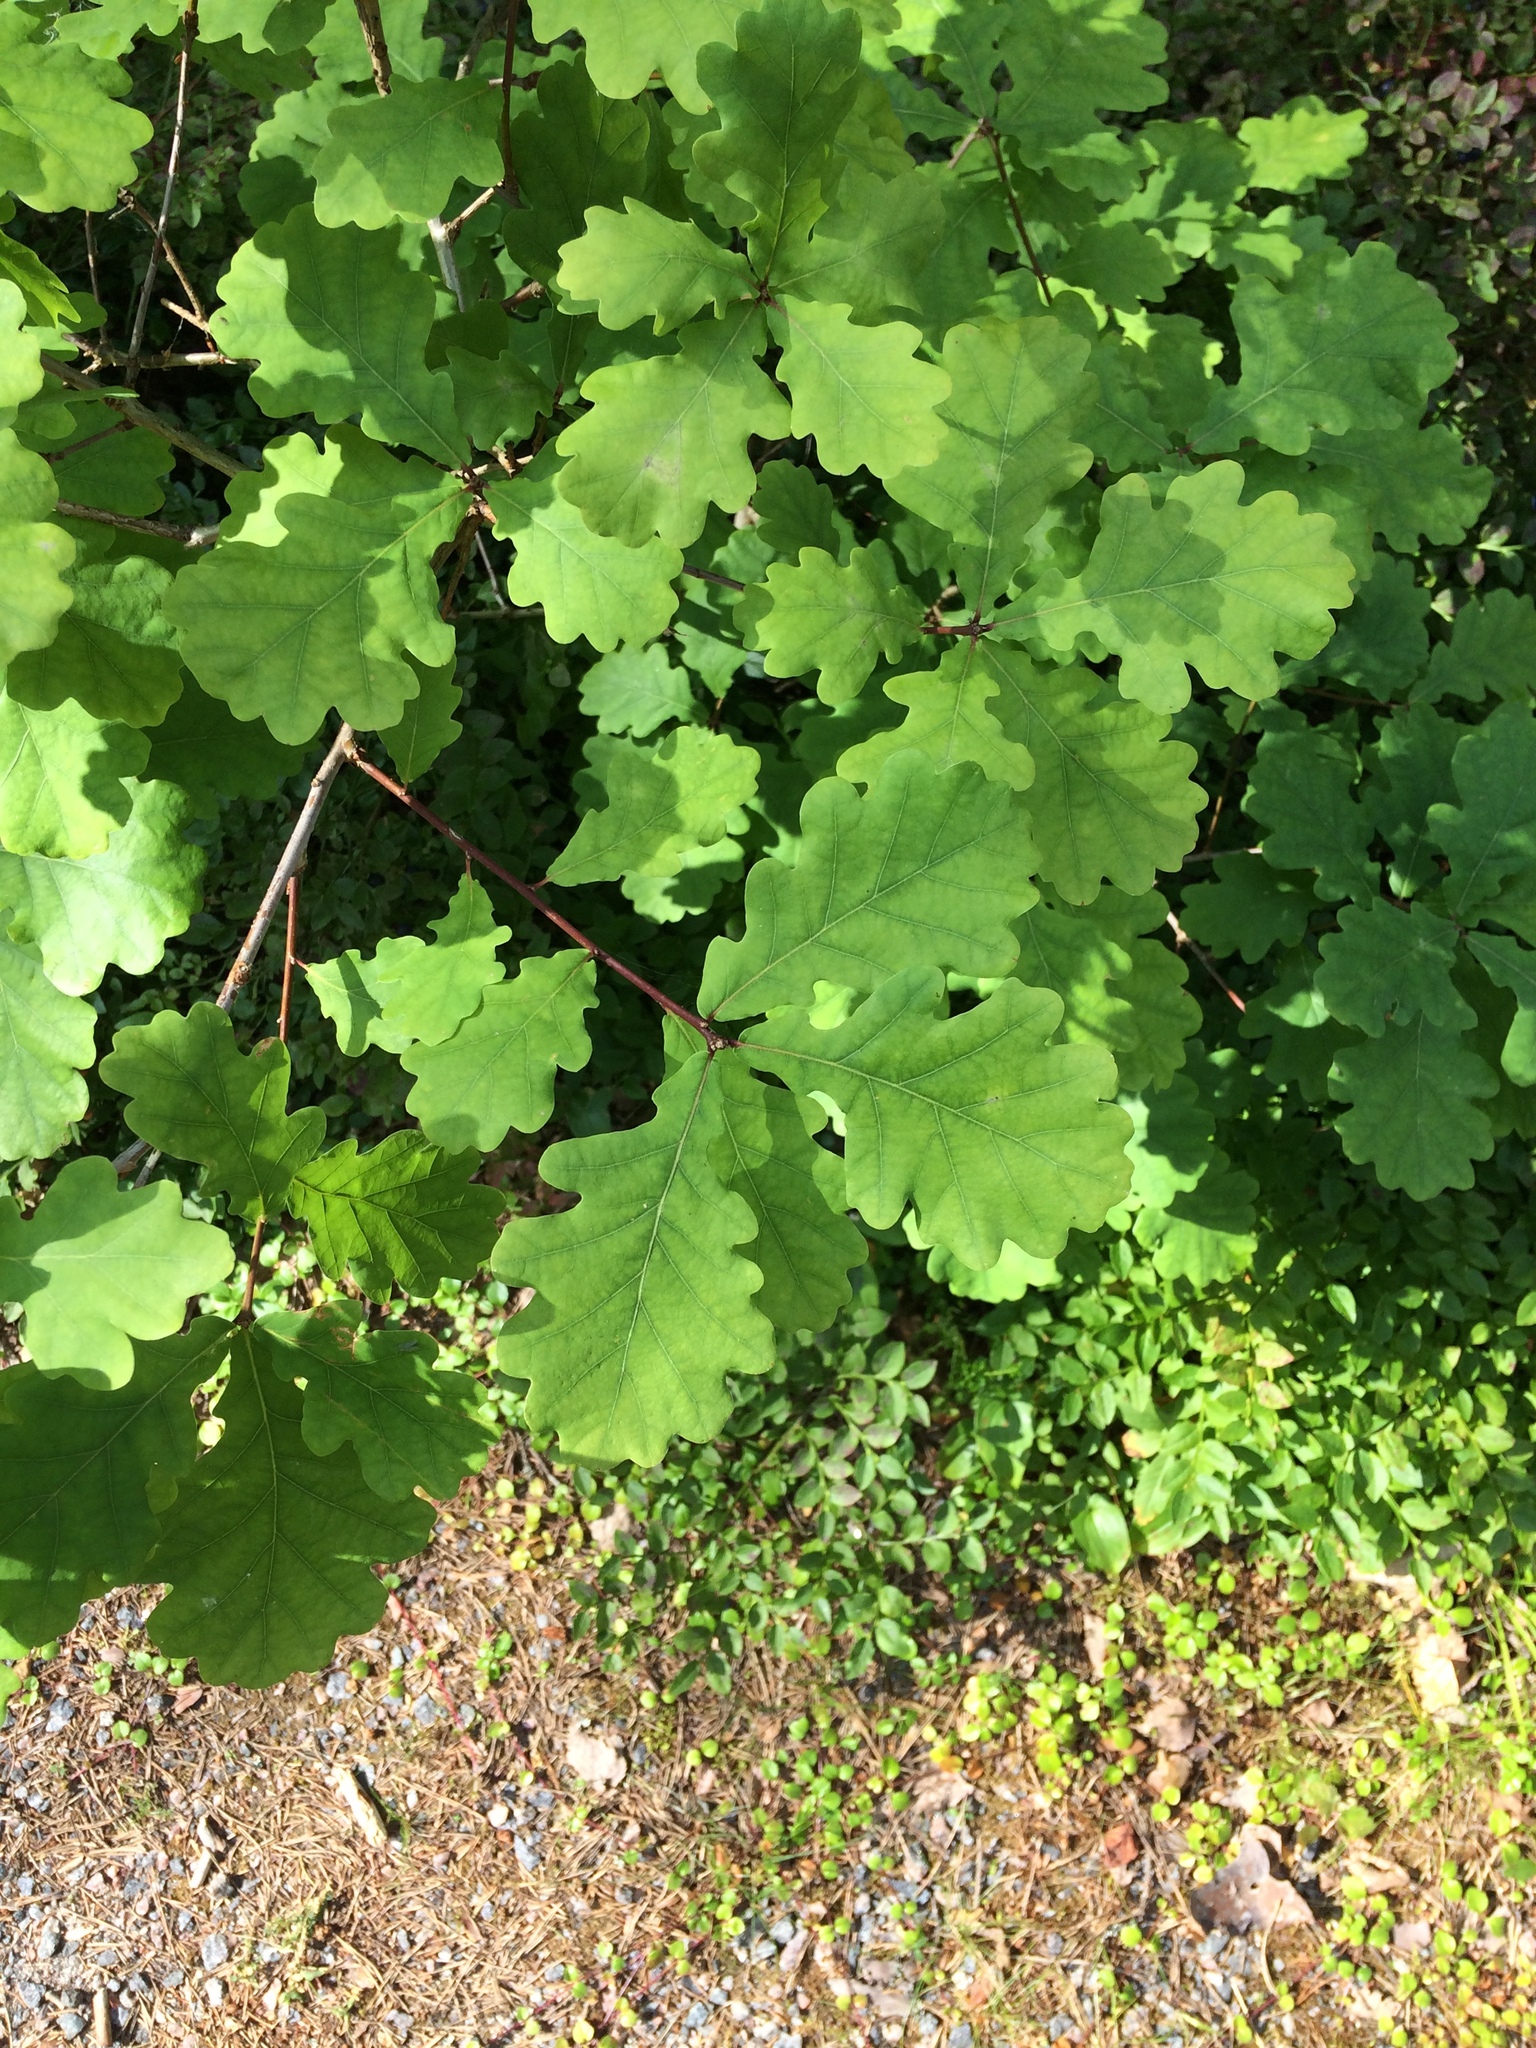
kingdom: Plantae
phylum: Tracheophyta
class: Magnoliopsida
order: Fagales
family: Fagaceae
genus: Quercus
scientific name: Quercus robur
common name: Pedunculate oak
